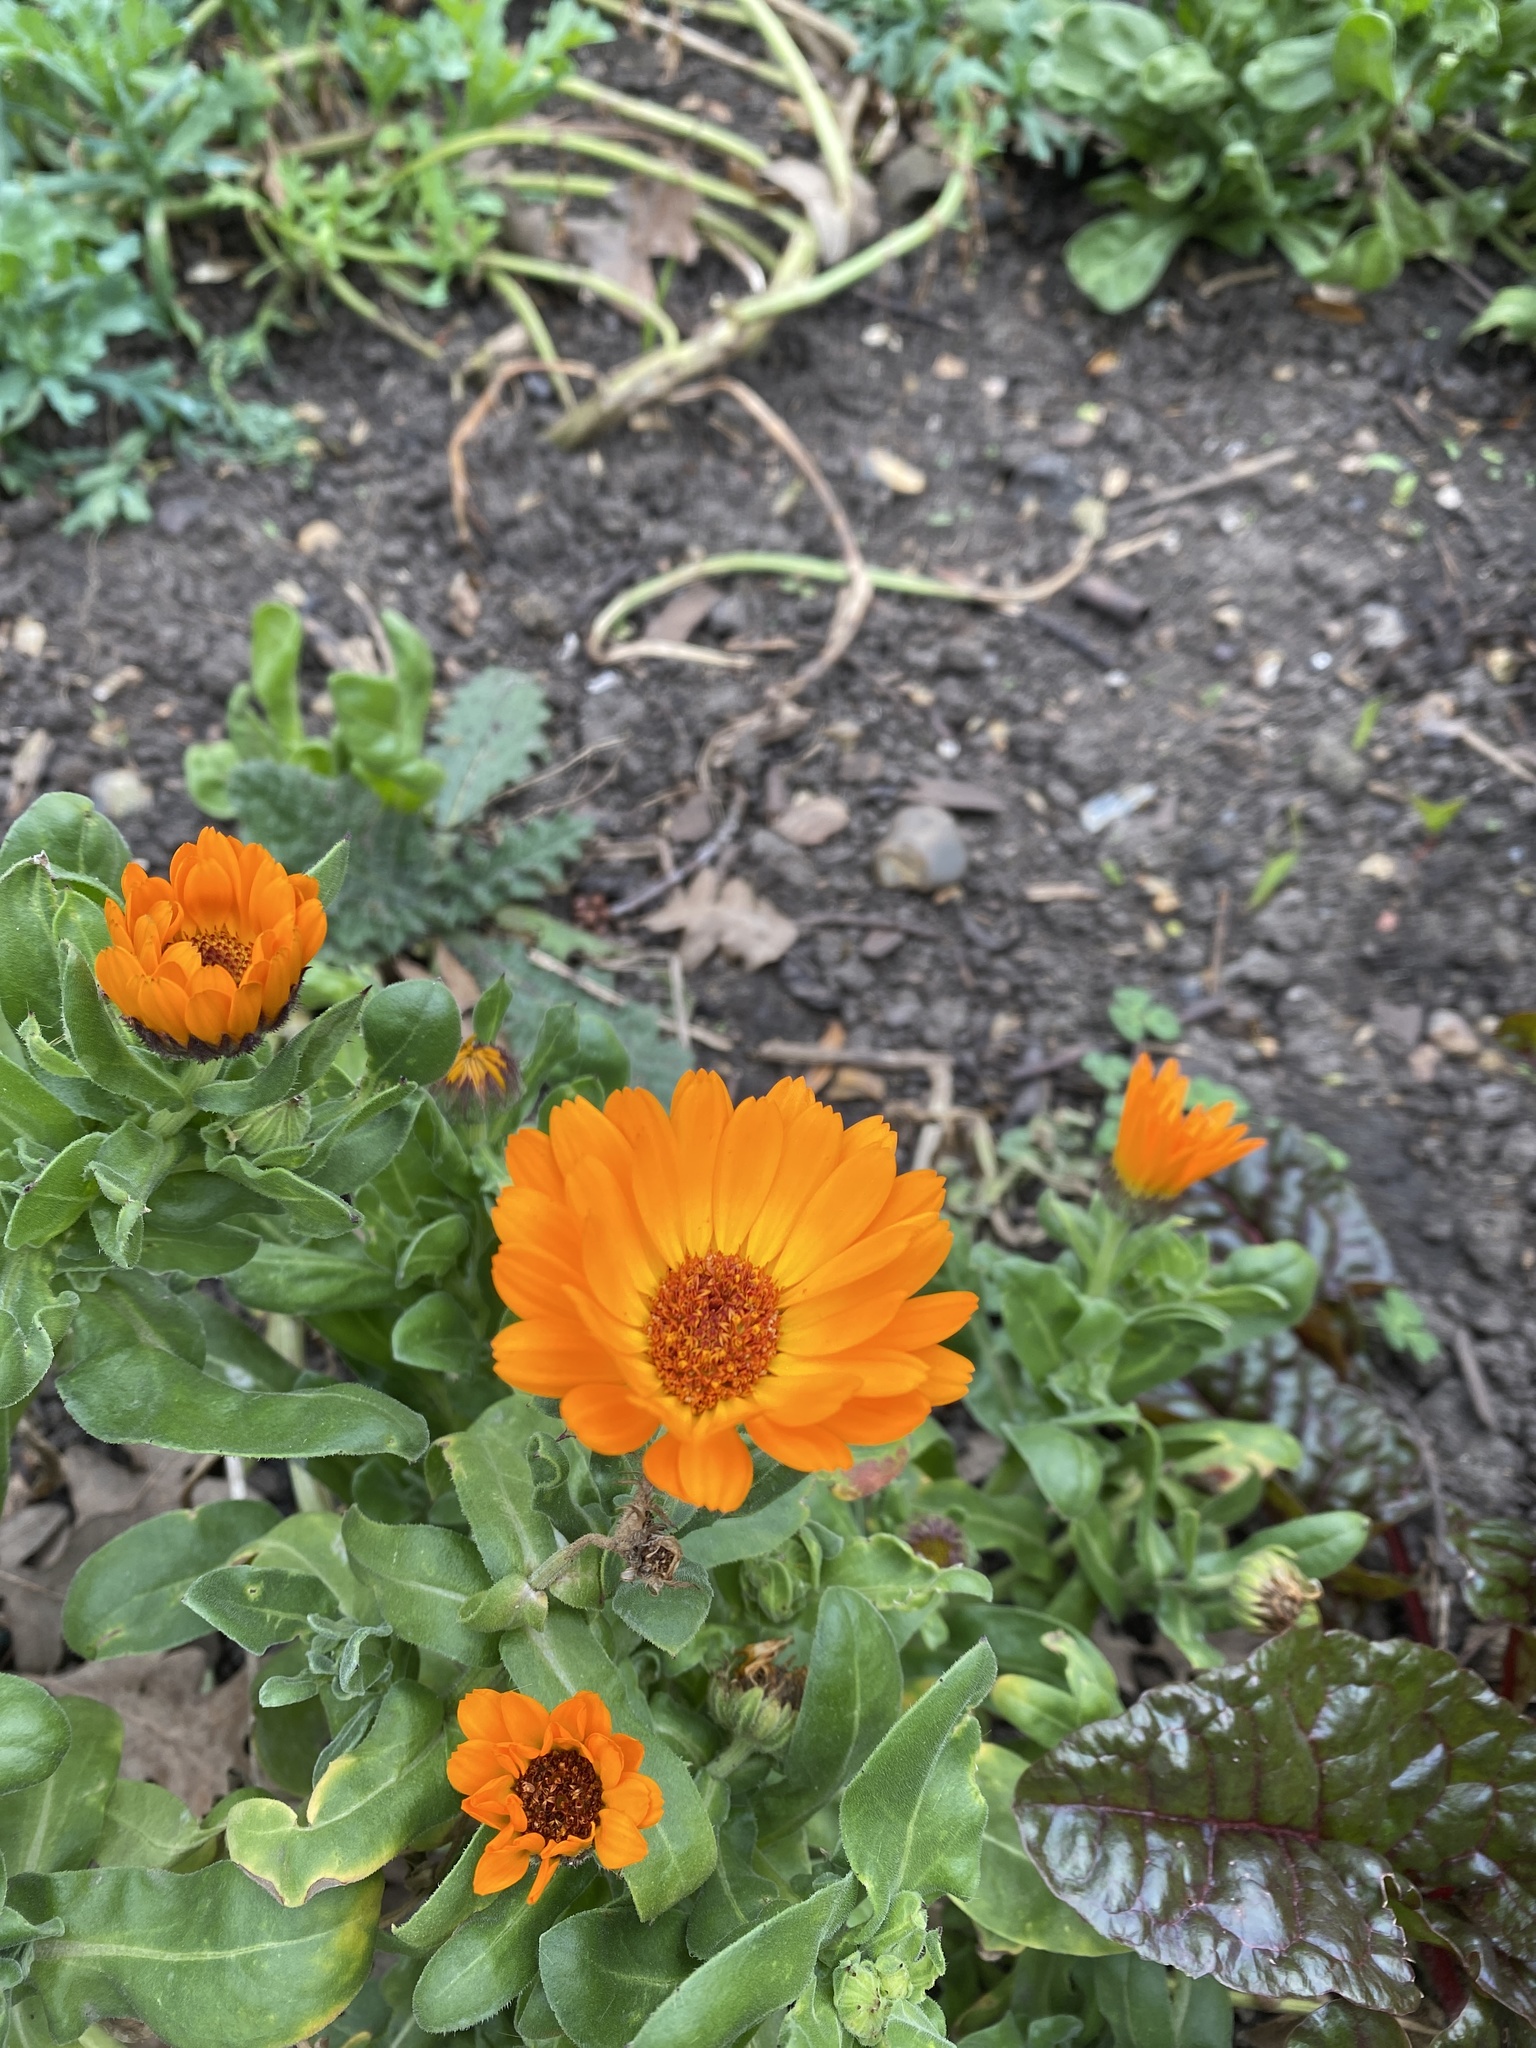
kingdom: Plantae
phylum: Tracheophyta
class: Magnoliopsida
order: Asterales
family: Asteraceae
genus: Calendula
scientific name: Calendula officinalis
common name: Pot marigold
